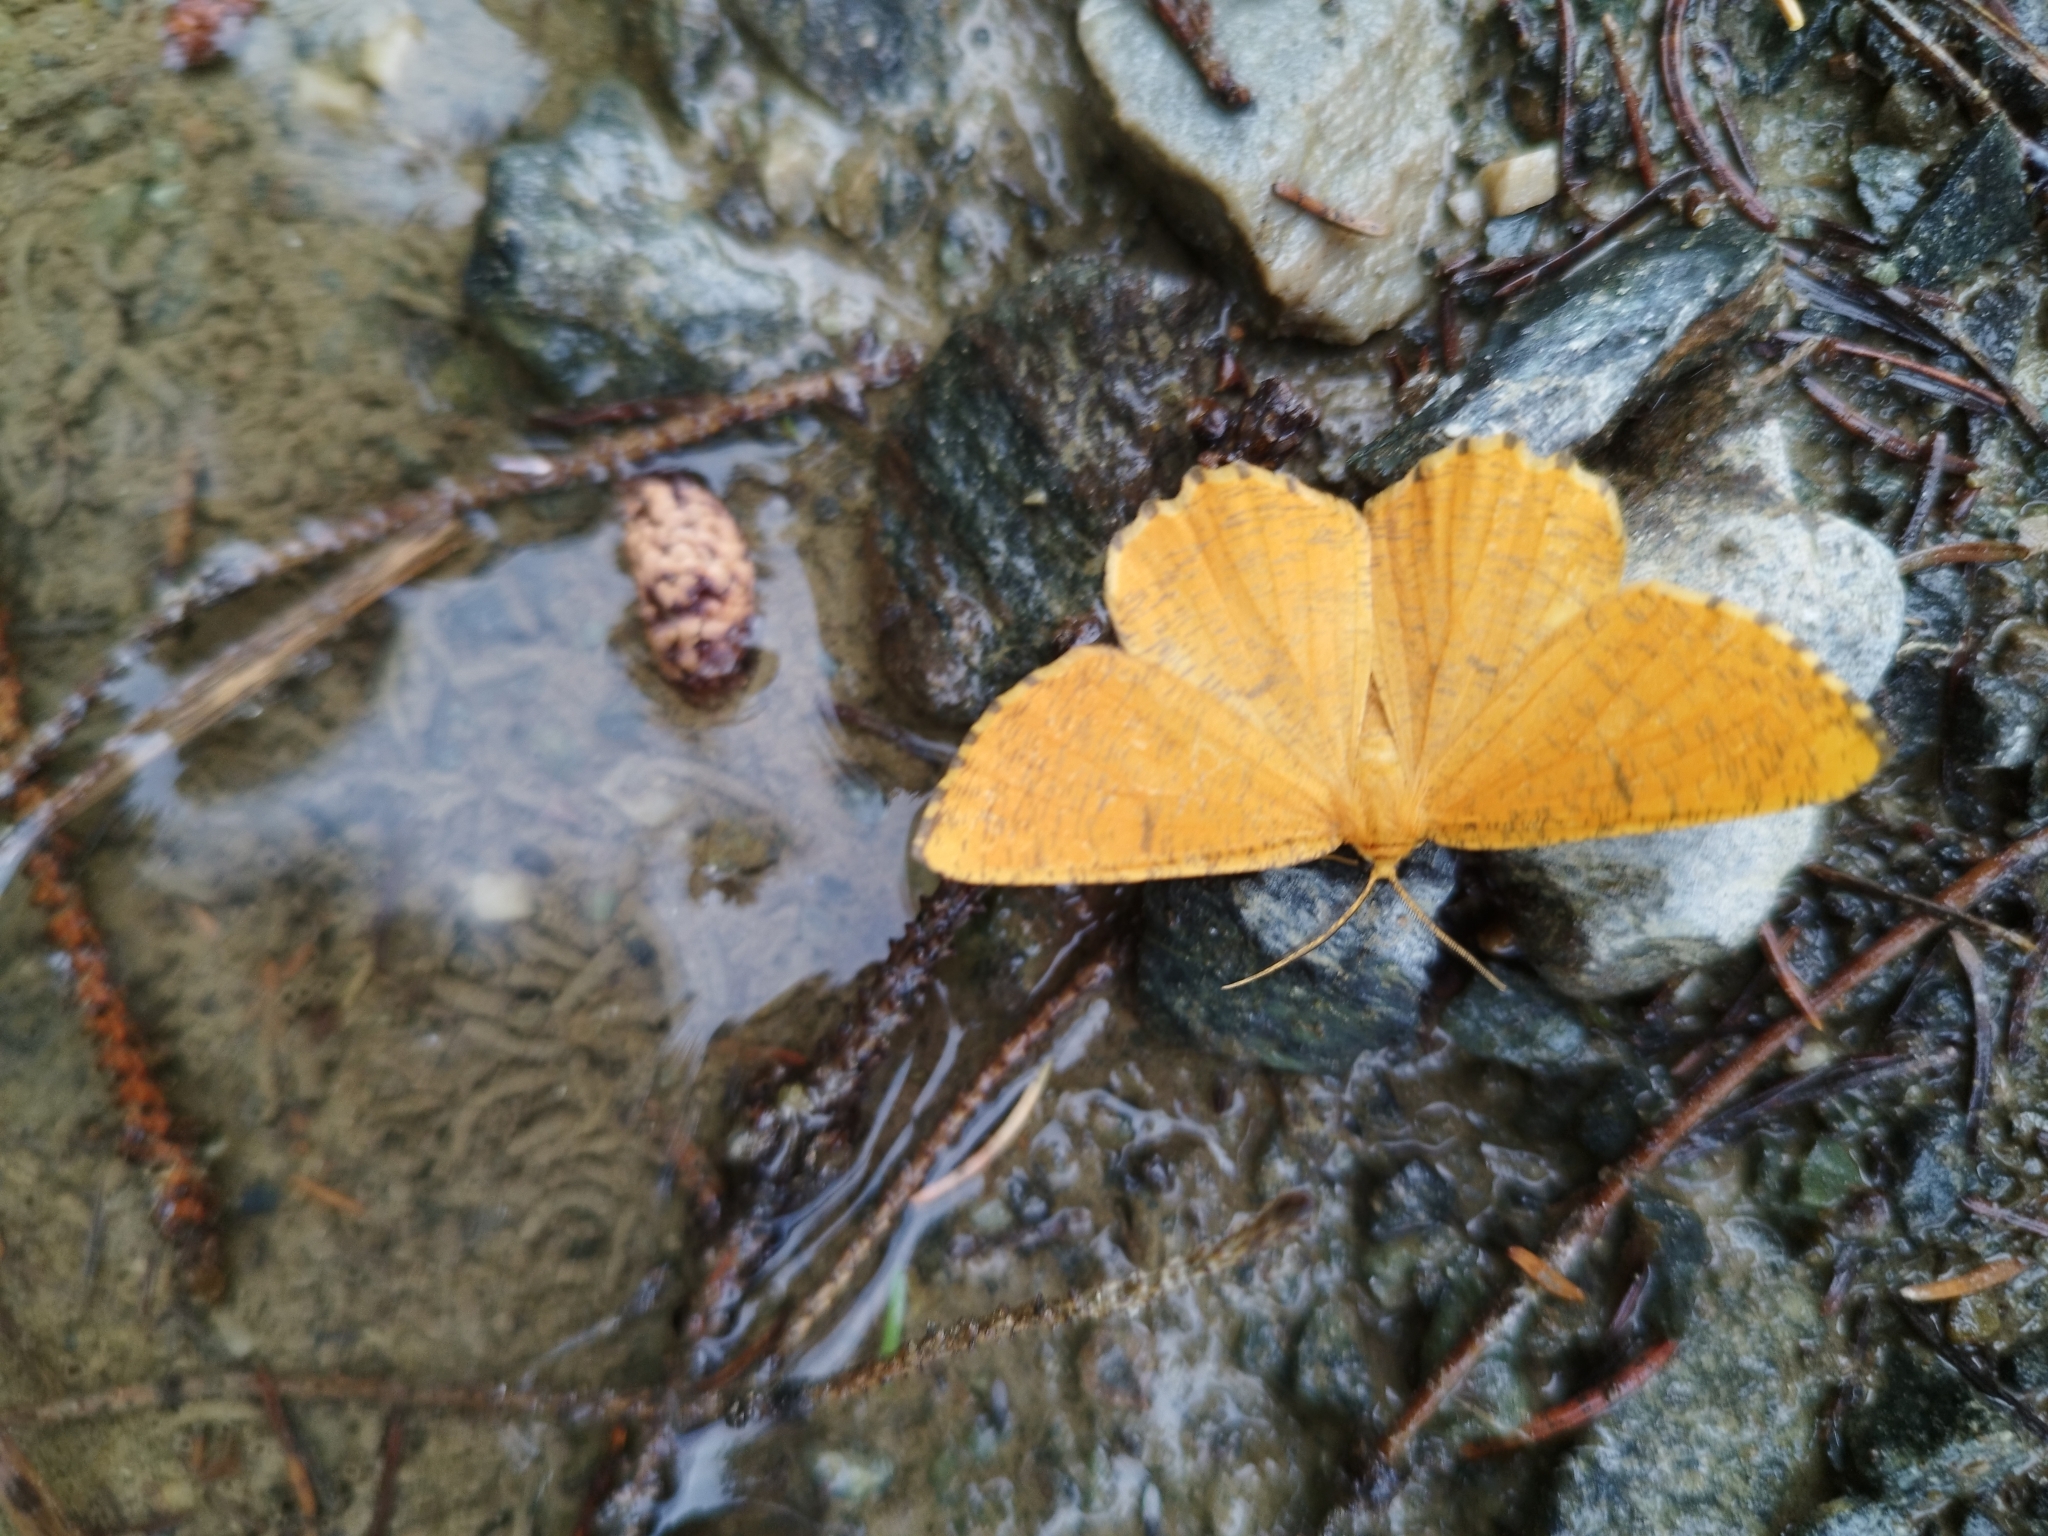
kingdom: Animalia
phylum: Arthropoda
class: Insecta
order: Lepidoptera
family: Geometridae
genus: Angerona
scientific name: Angerona prunaria
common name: Orange moth
